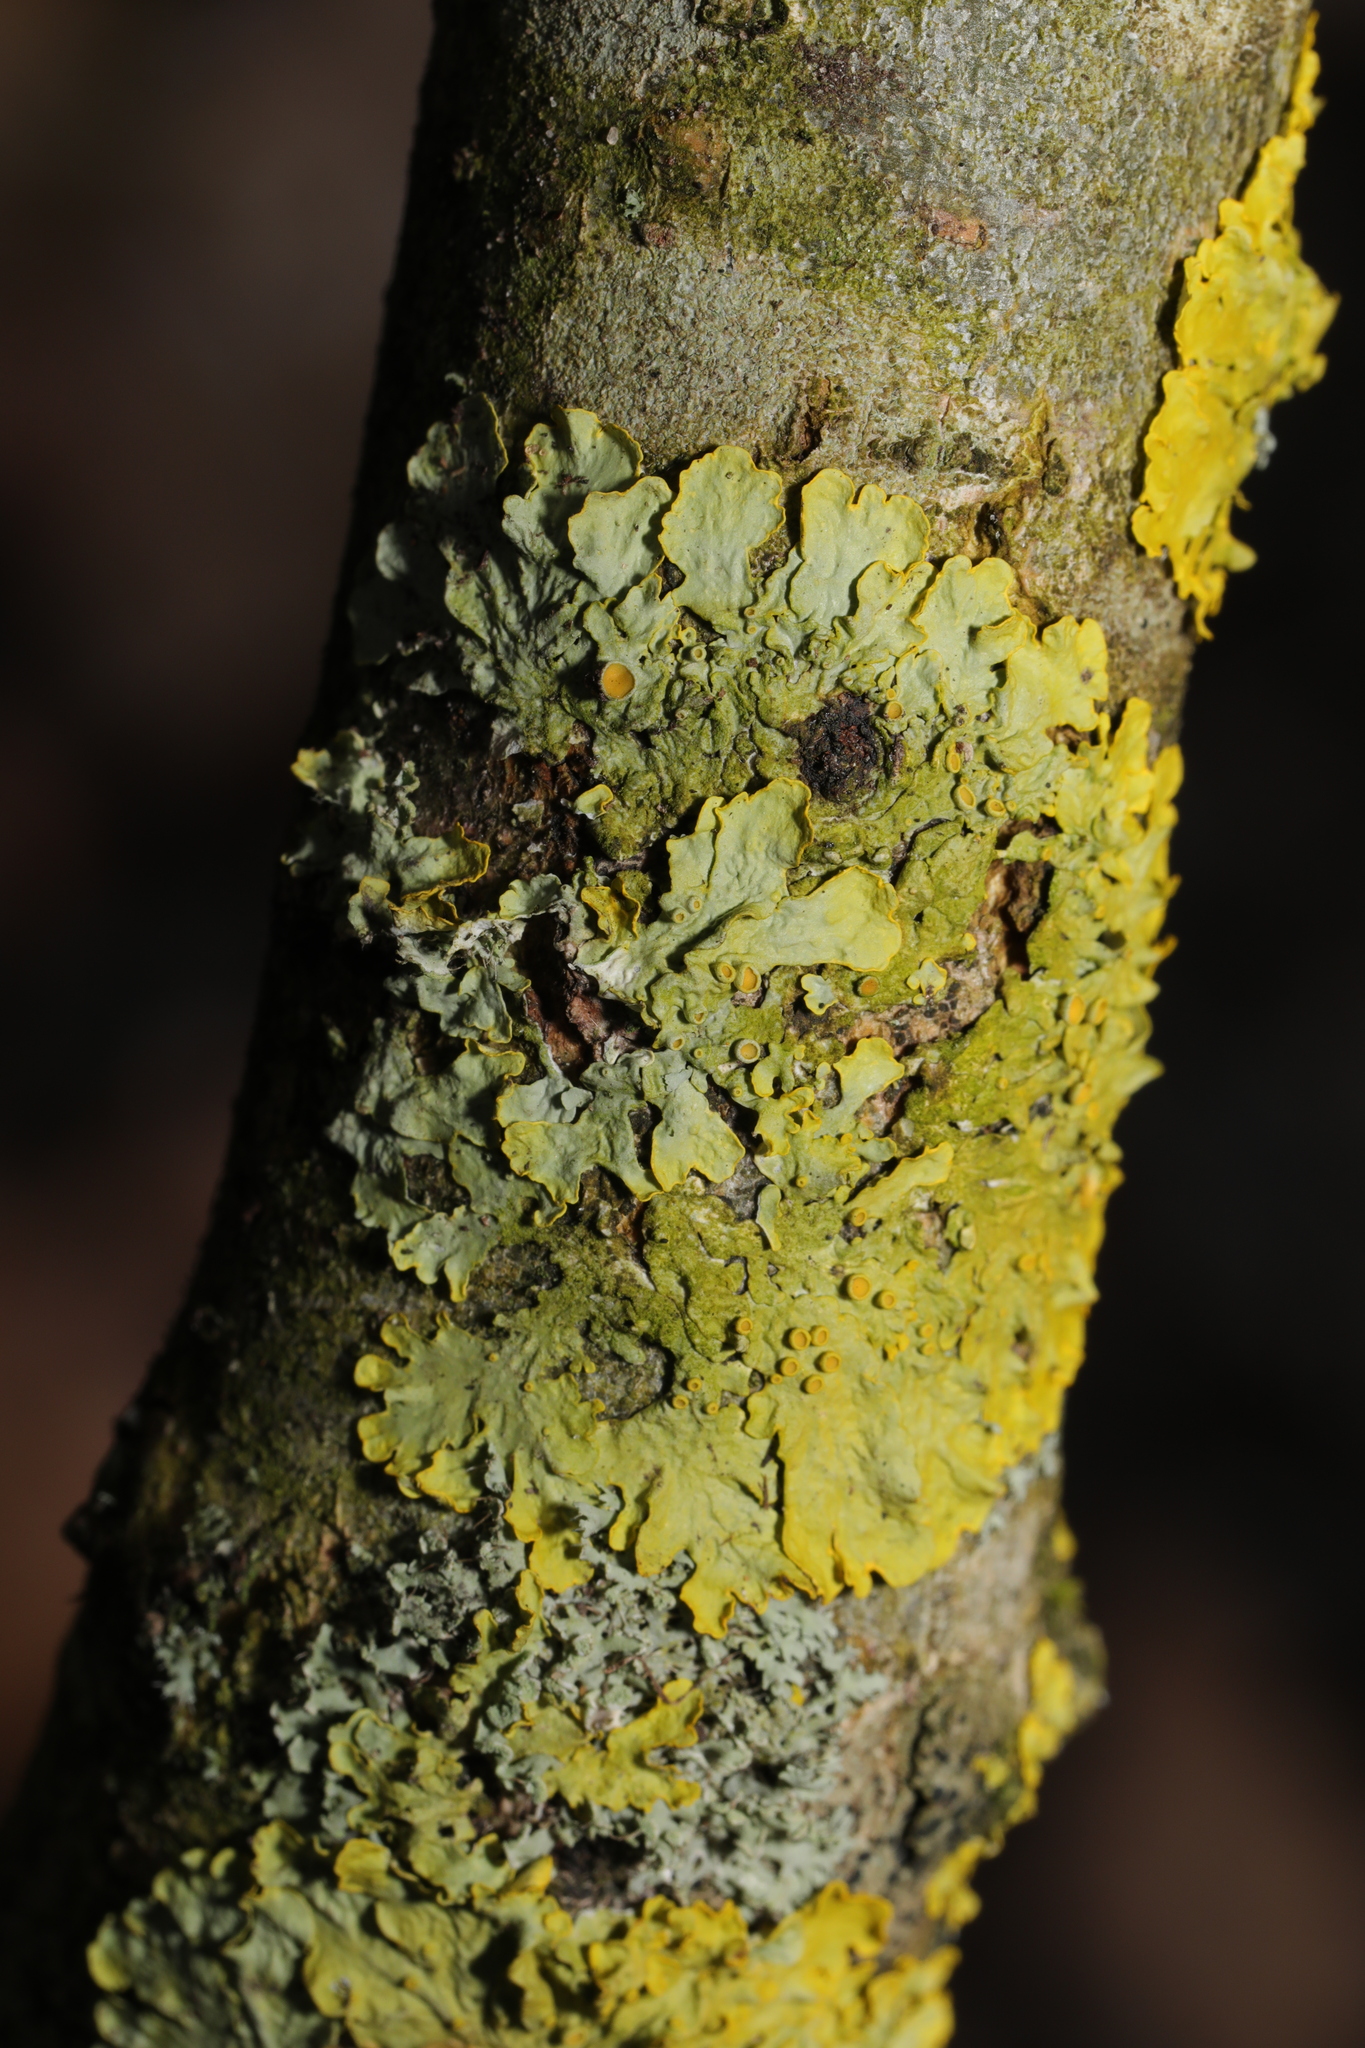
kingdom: Fungi
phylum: Ascomycota
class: Lecanoromycetes
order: Teloschistales
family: Teloschistaceae
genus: Xanthoria
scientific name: Xanthoria parietina
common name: Common orange lichen
